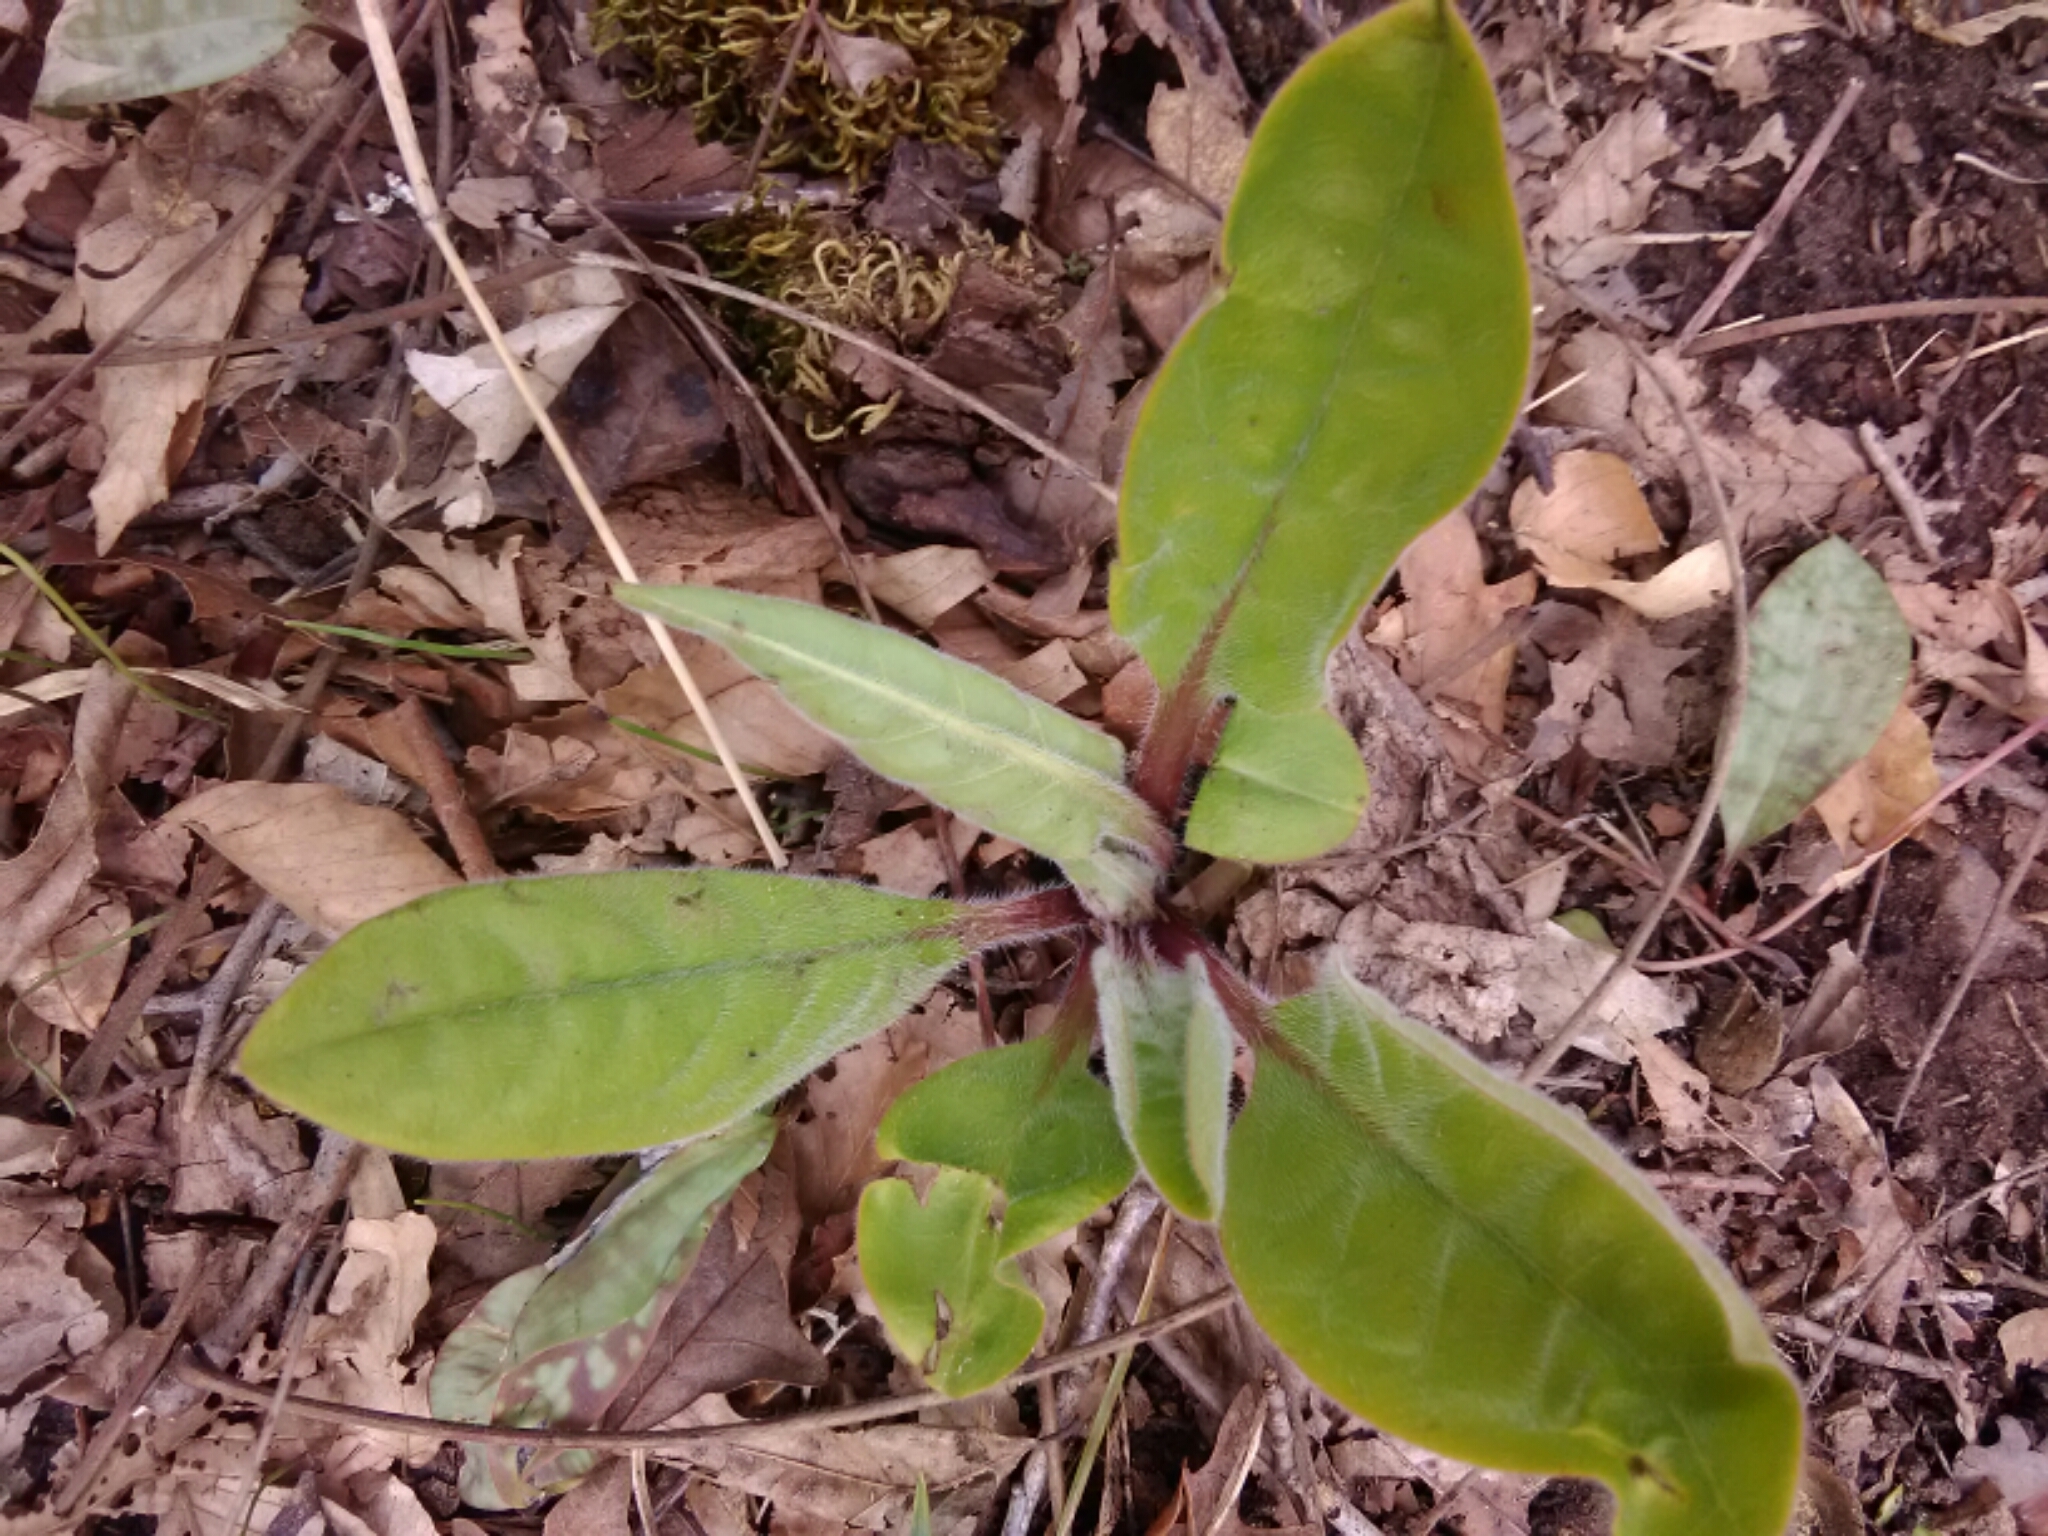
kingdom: Plantae
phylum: Tracheophyta
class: Magnoliopsida
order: Boraginales
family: Boraginaceae
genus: Andersonglossum
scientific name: Andersonglossum virginianum
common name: Wild comfrey
